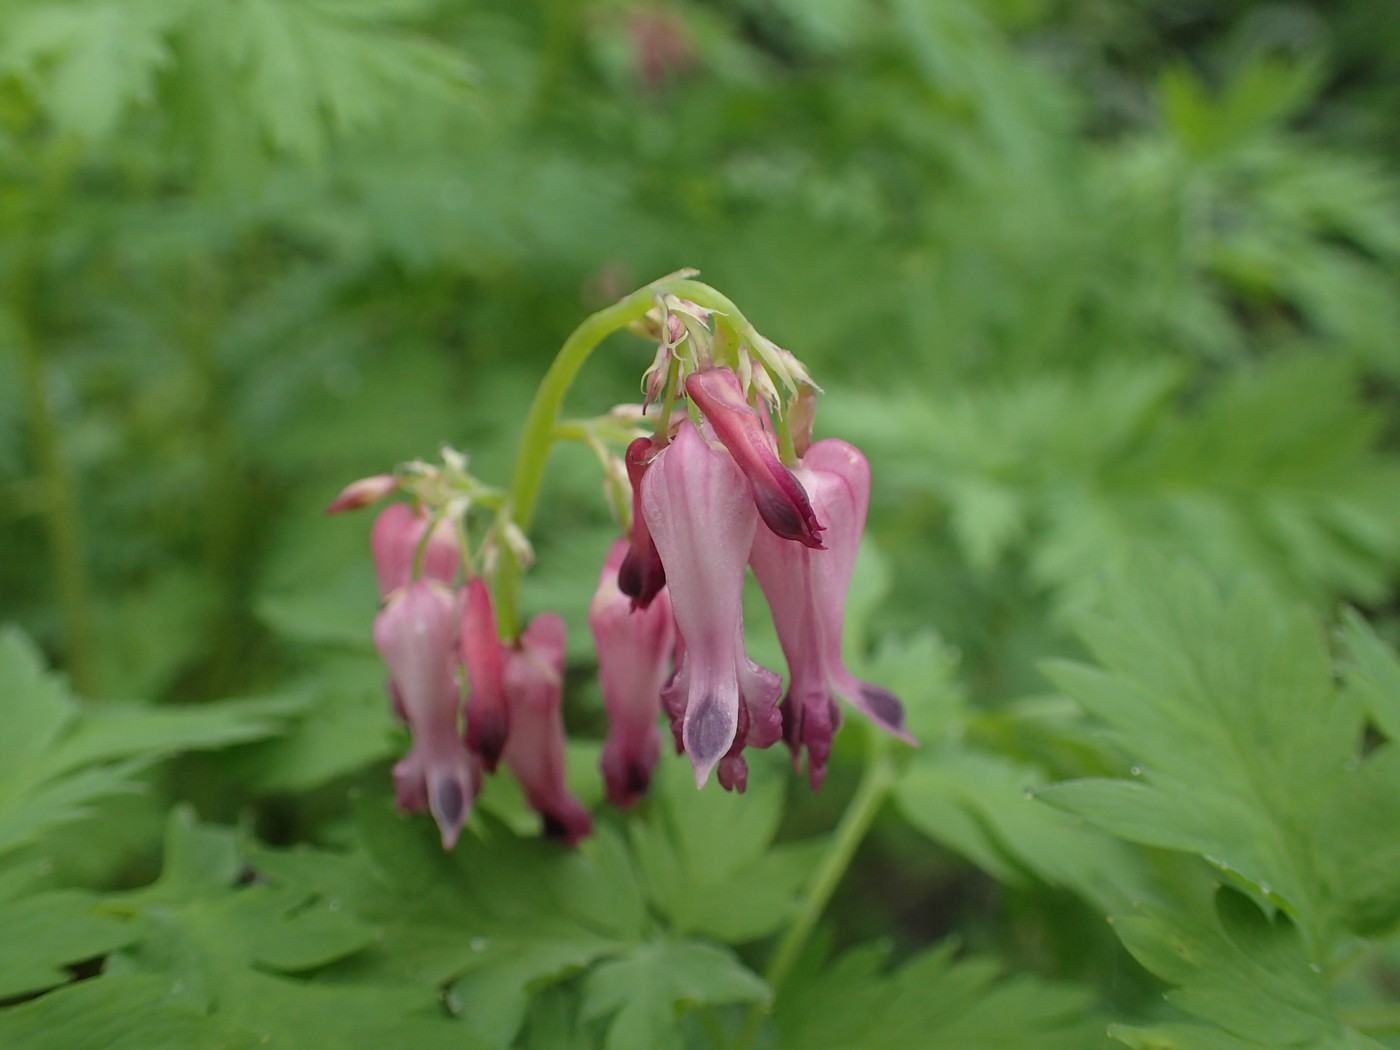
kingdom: Plantae
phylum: Tracheophyta
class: Magnoliopsida
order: Ranunculales
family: Papaveraceae
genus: Dicentra
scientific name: Dicentra eximia
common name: Turkey-corn
